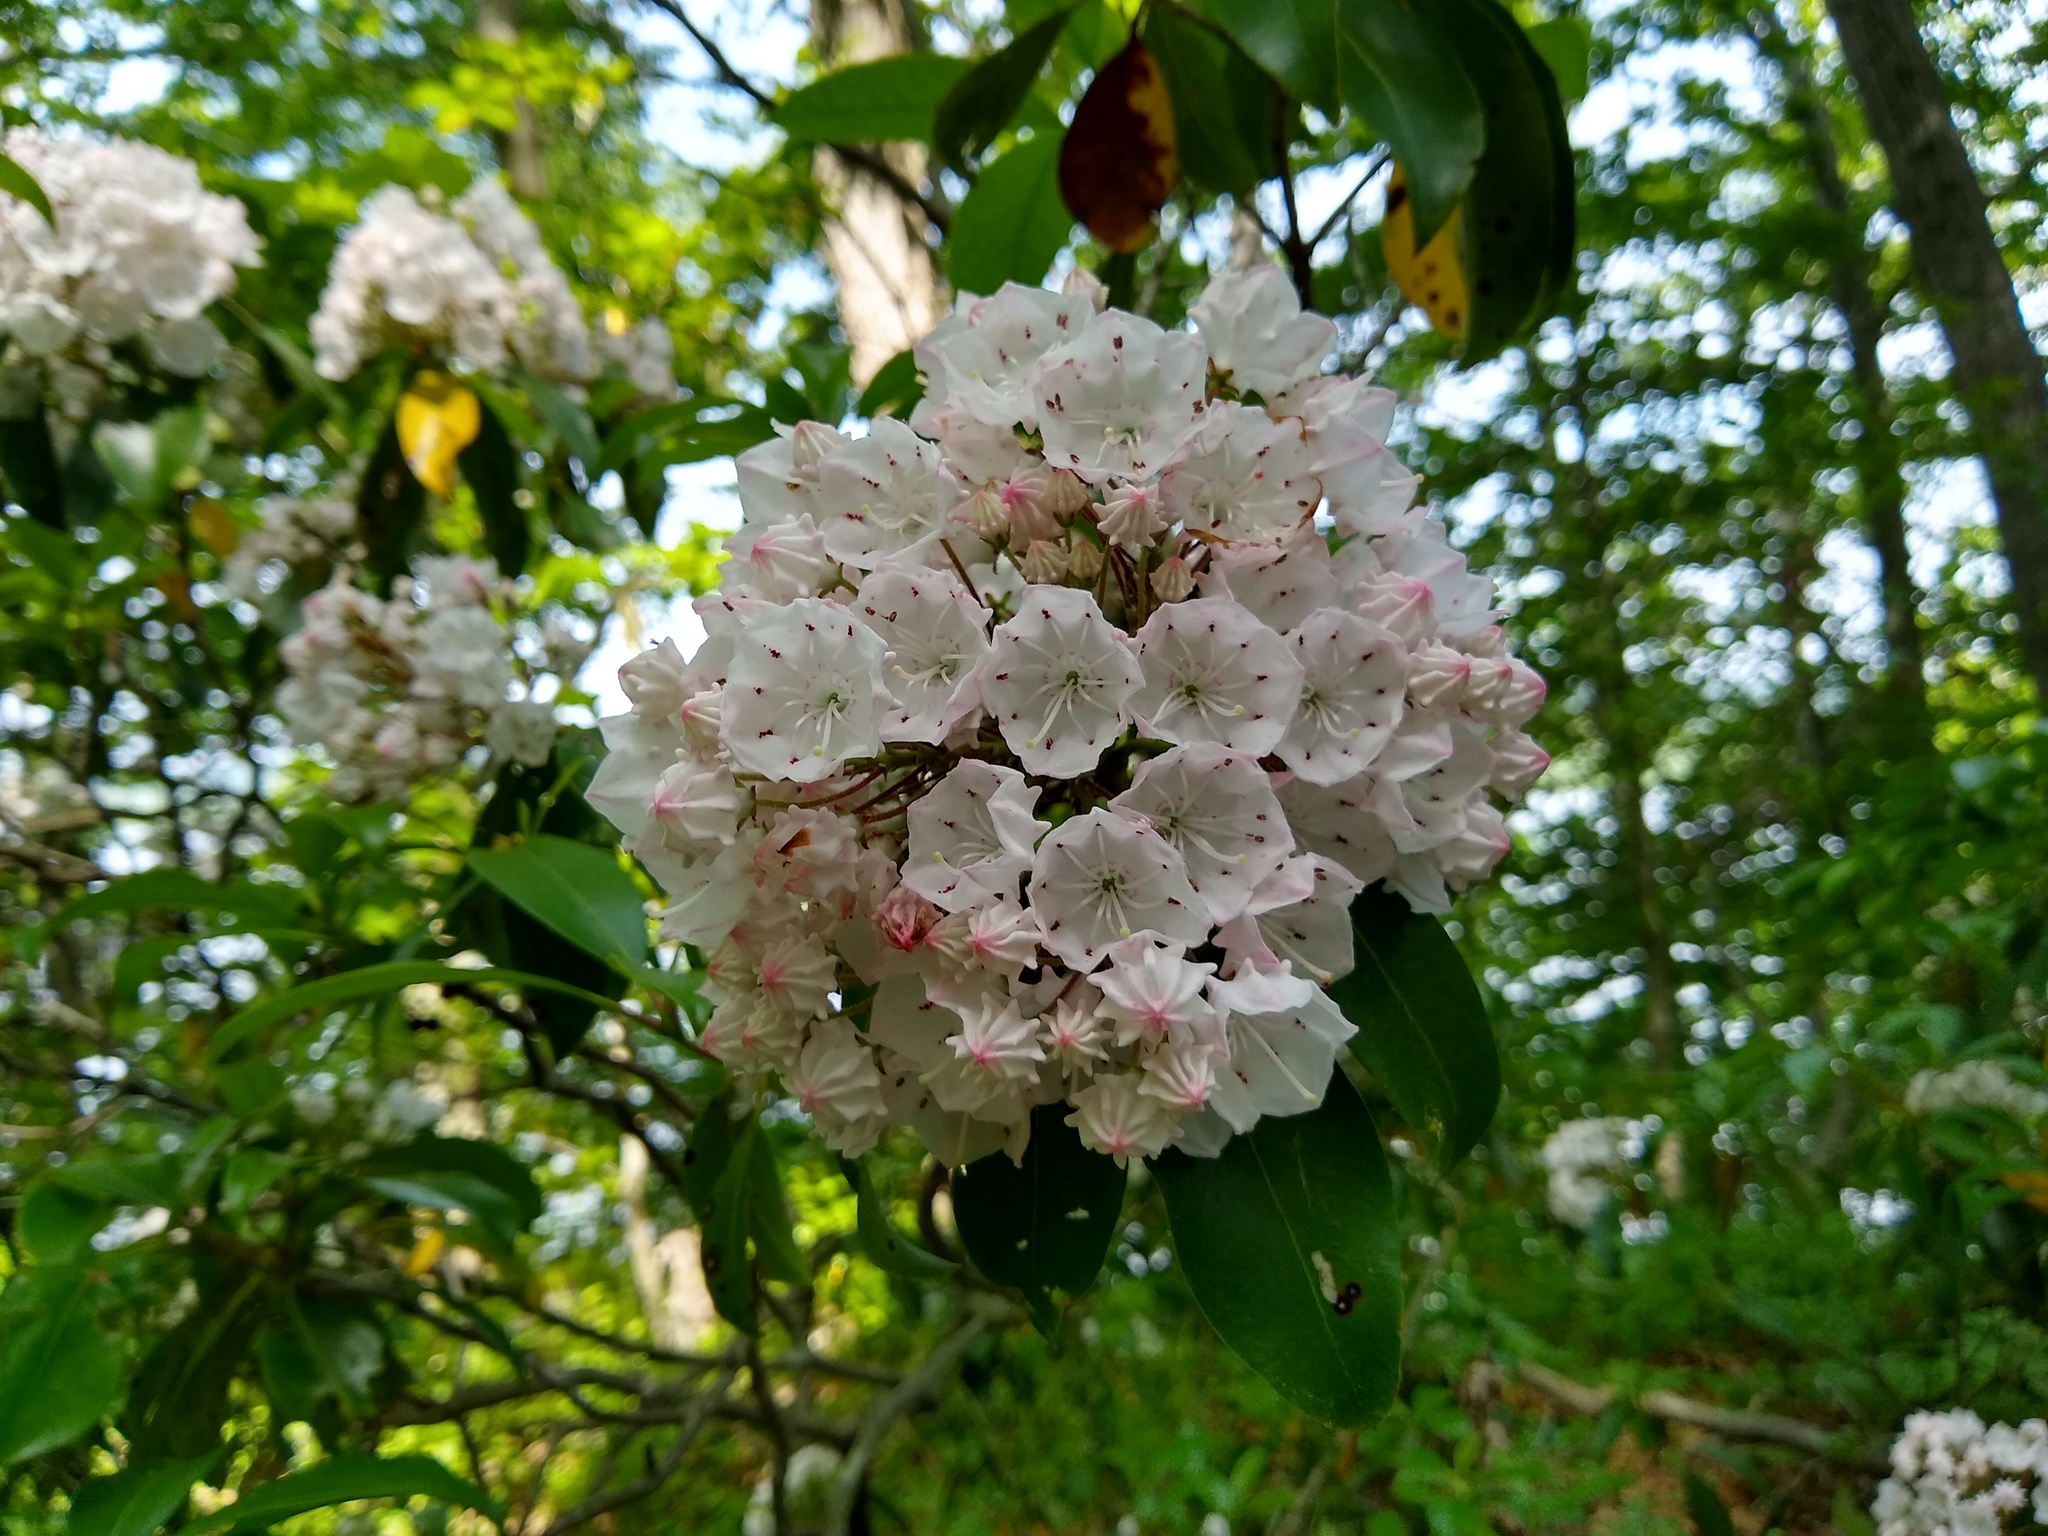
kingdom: Plantae
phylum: Tracheophyta
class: Magnoliopsida
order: Ericales
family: Ericaceae
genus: Kalmia
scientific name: Kalmia latifolia
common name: Mountain-laurel
